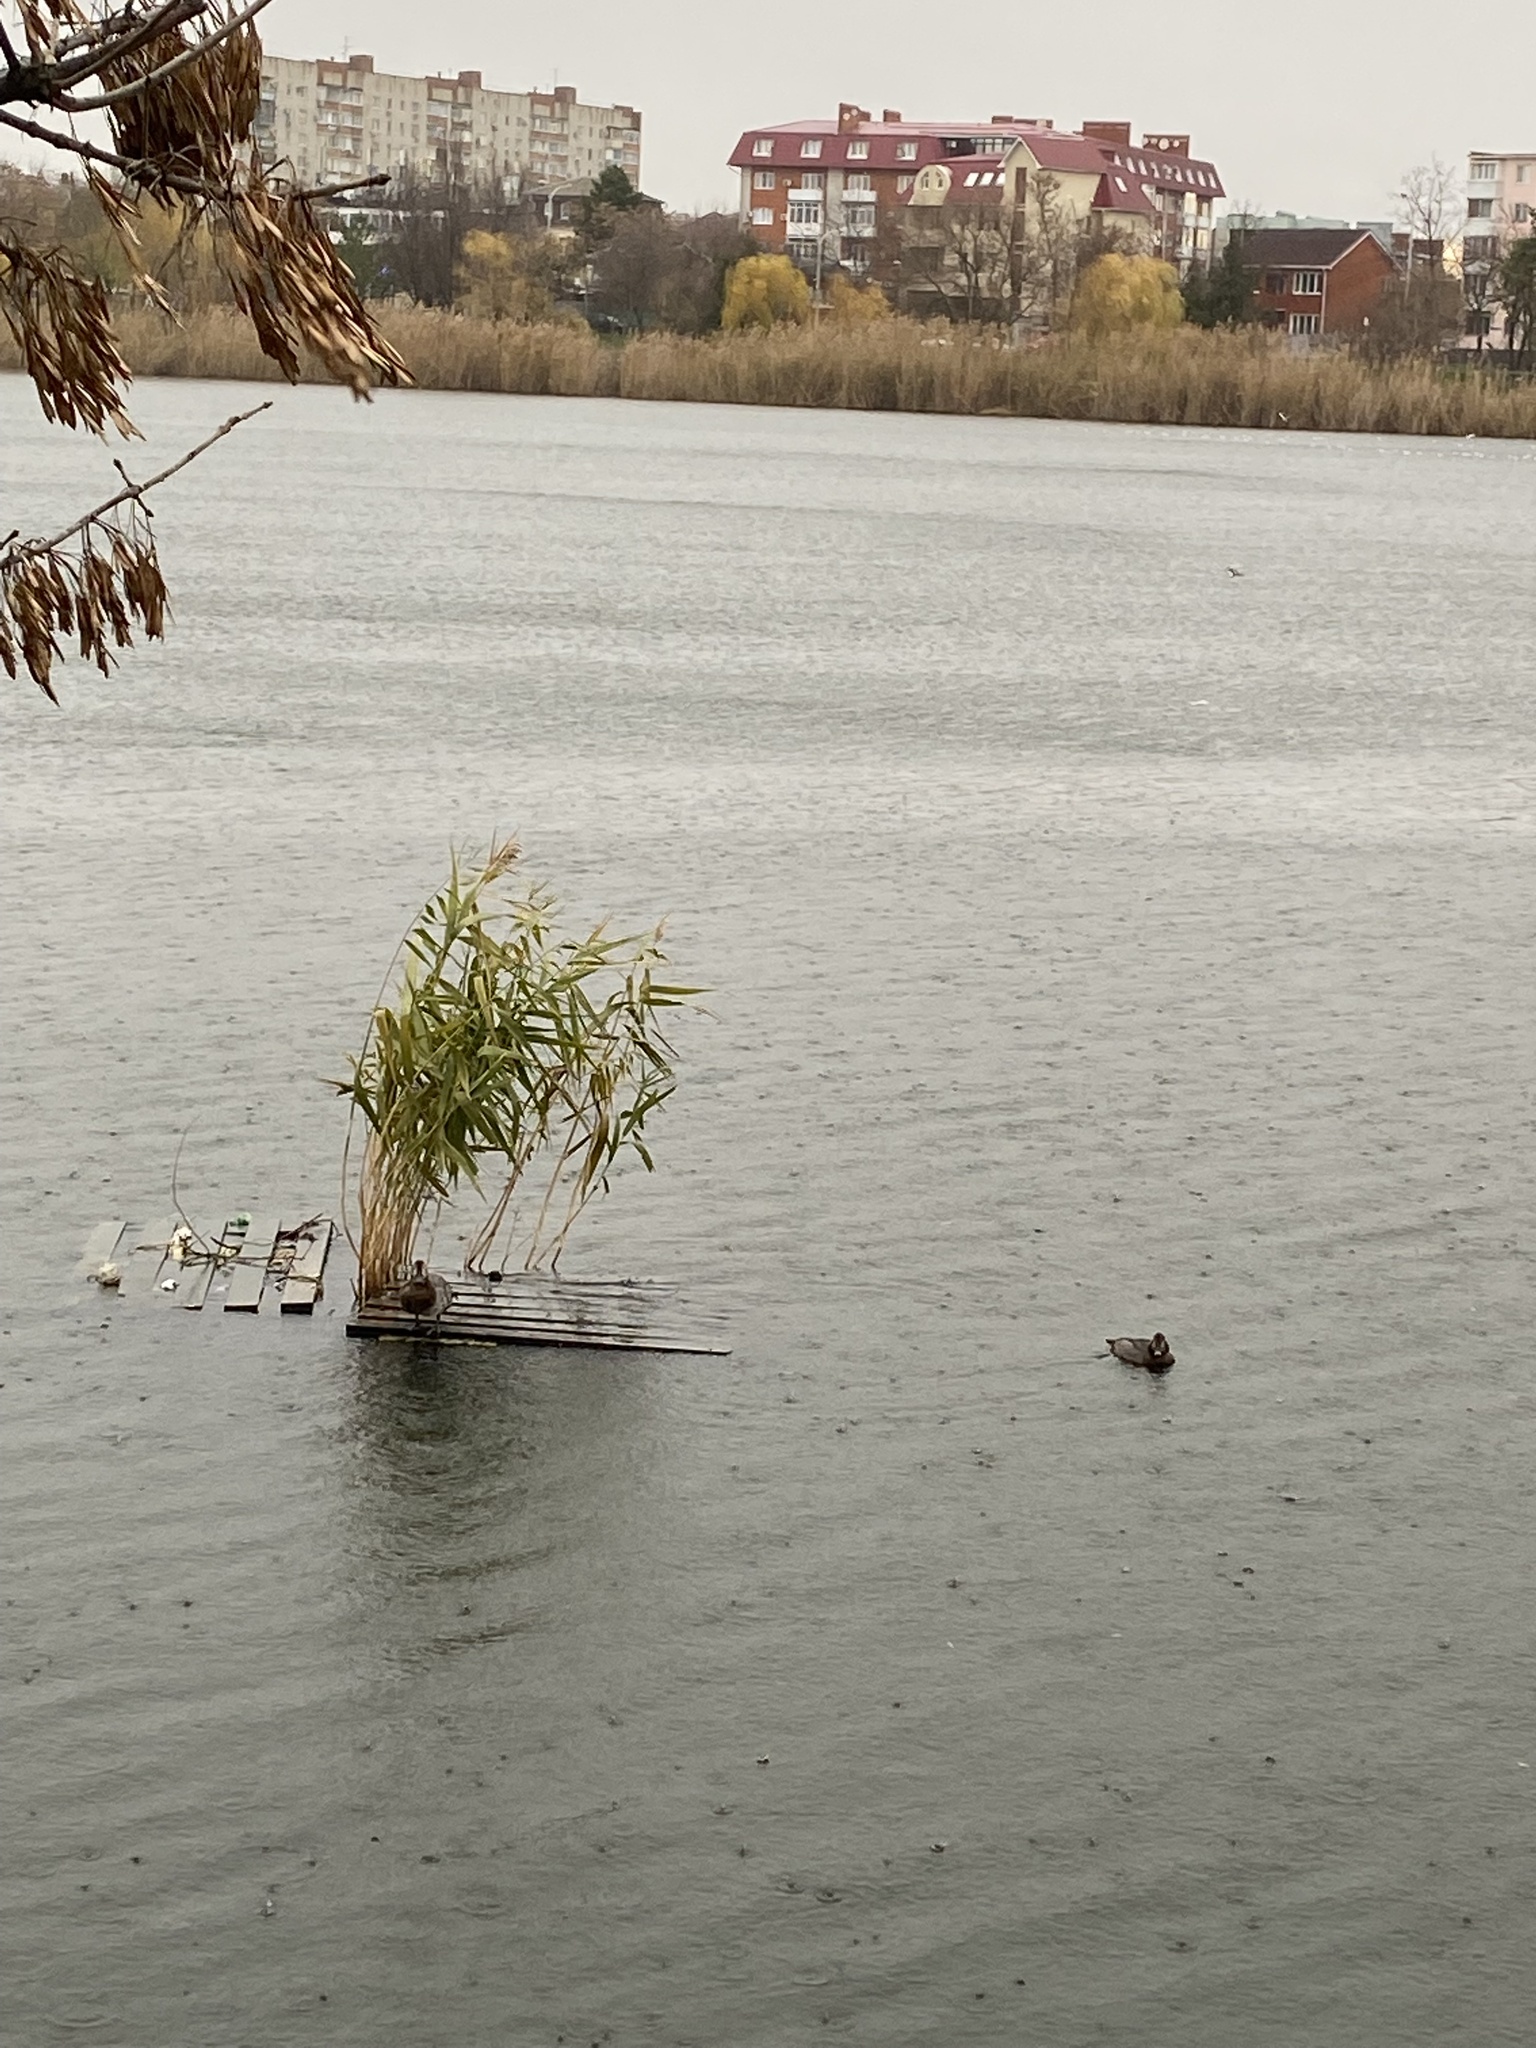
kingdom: Animalia
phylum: Chordata
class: Aves
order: Anseriformes
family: Anatidae
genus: Aythya
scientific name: Aythya ferina
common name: Common pochard
